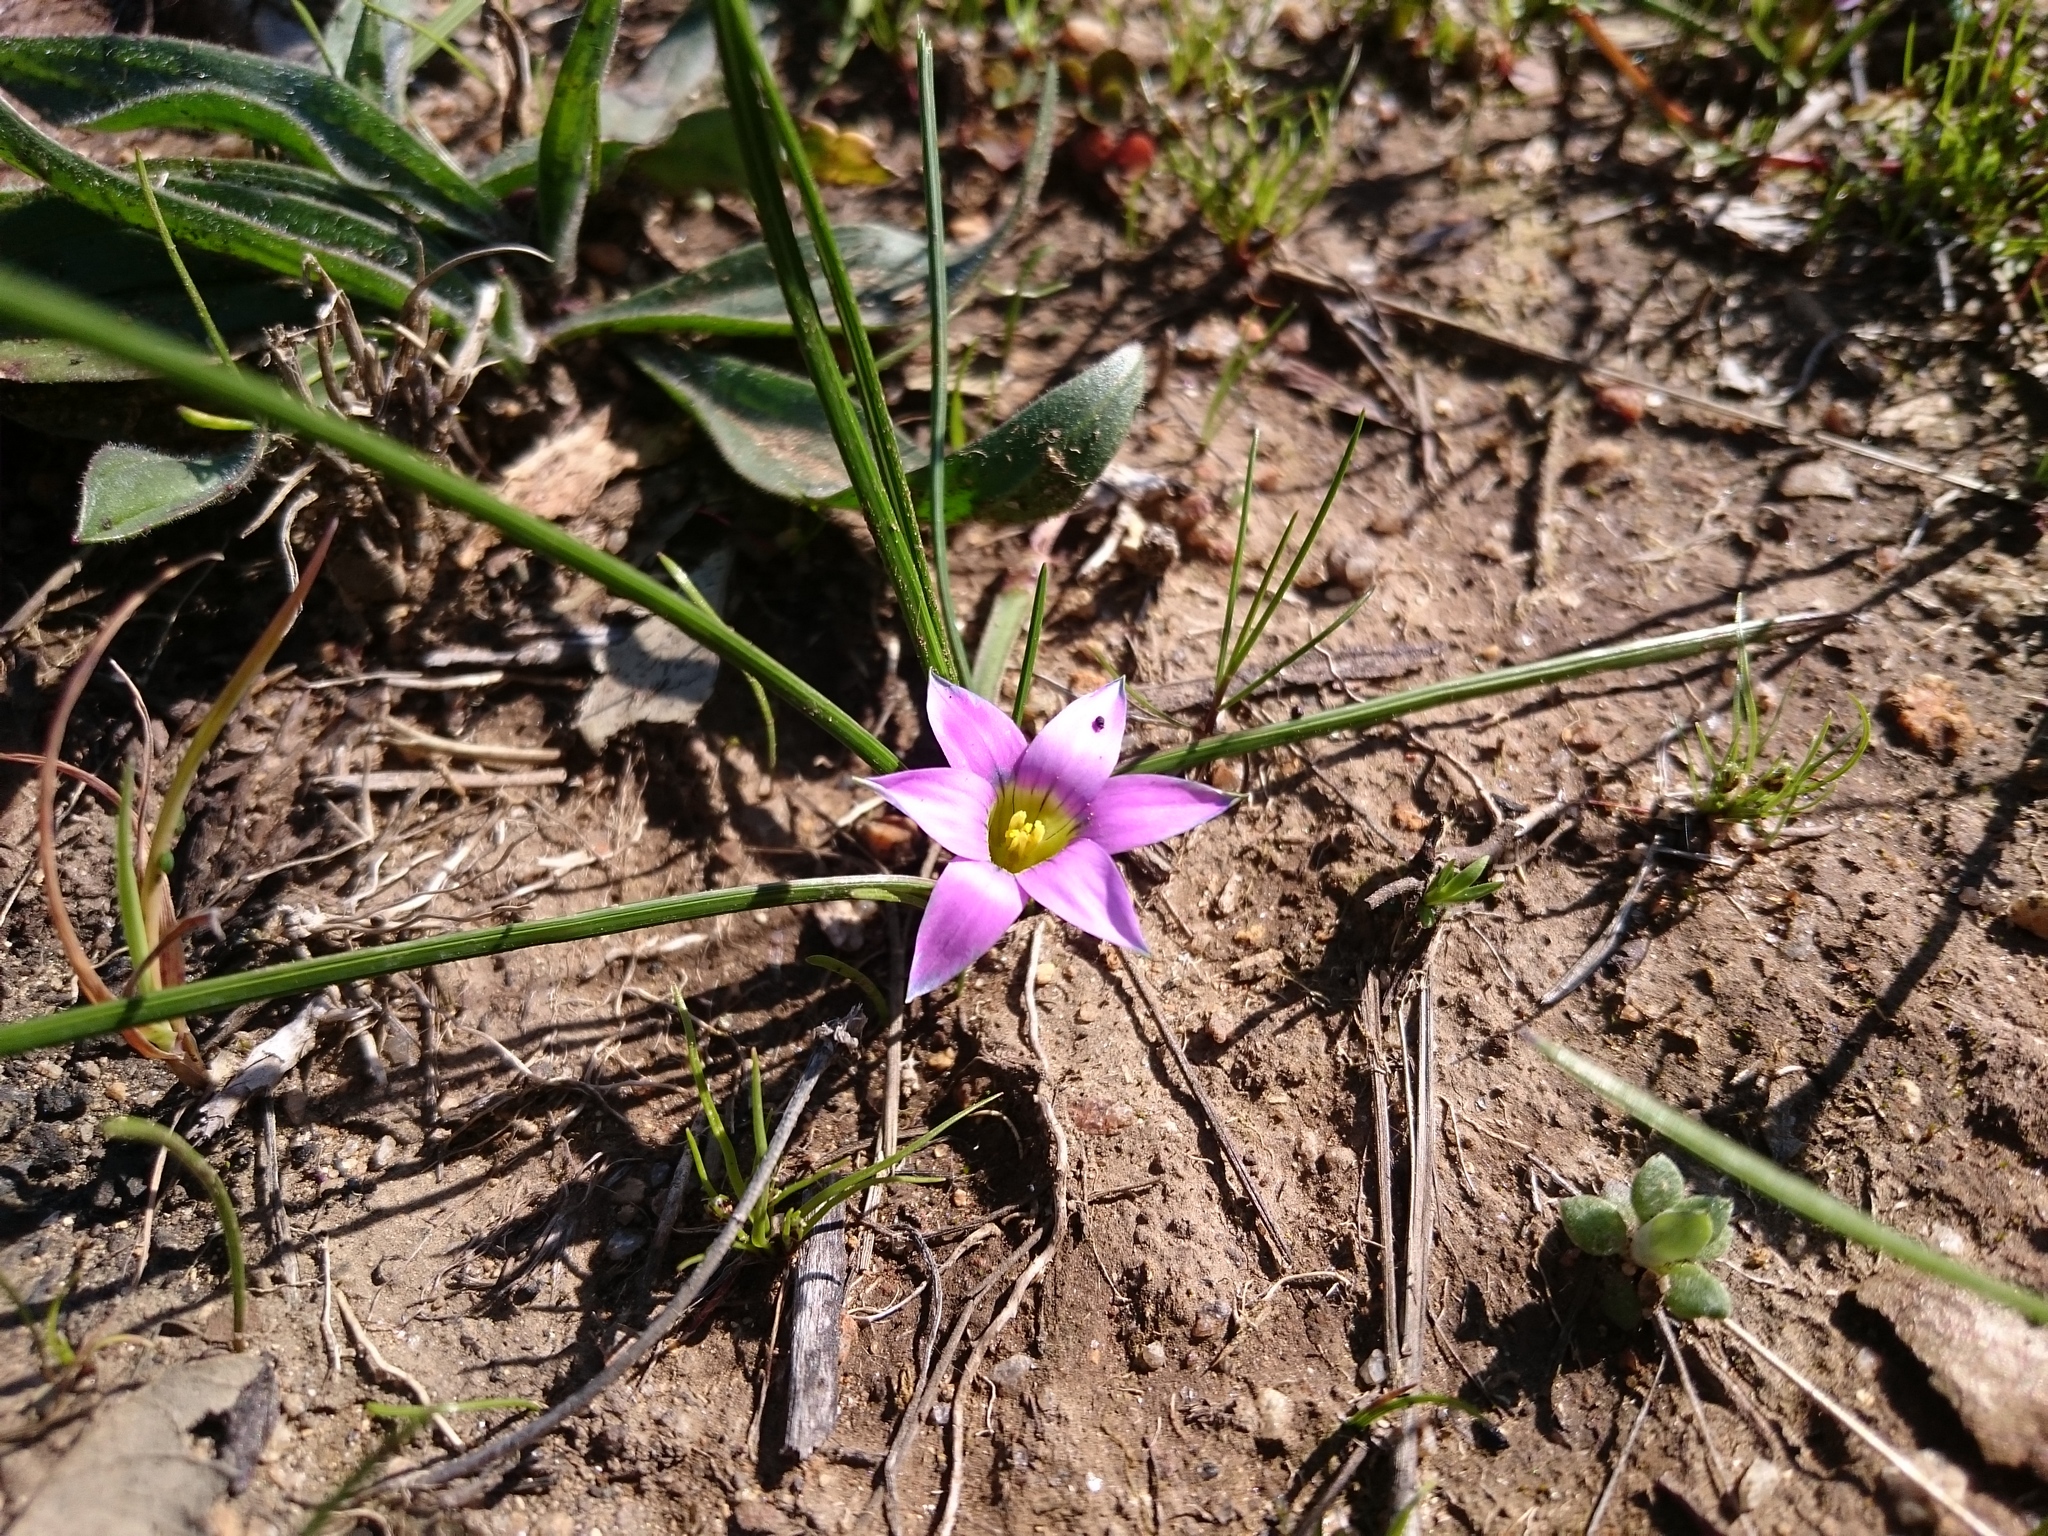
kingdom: Plantae
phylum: Tracheophyta
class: Liliopsida
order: Asparagales
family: Iridaceae
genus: Romulea
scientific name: Romulea
